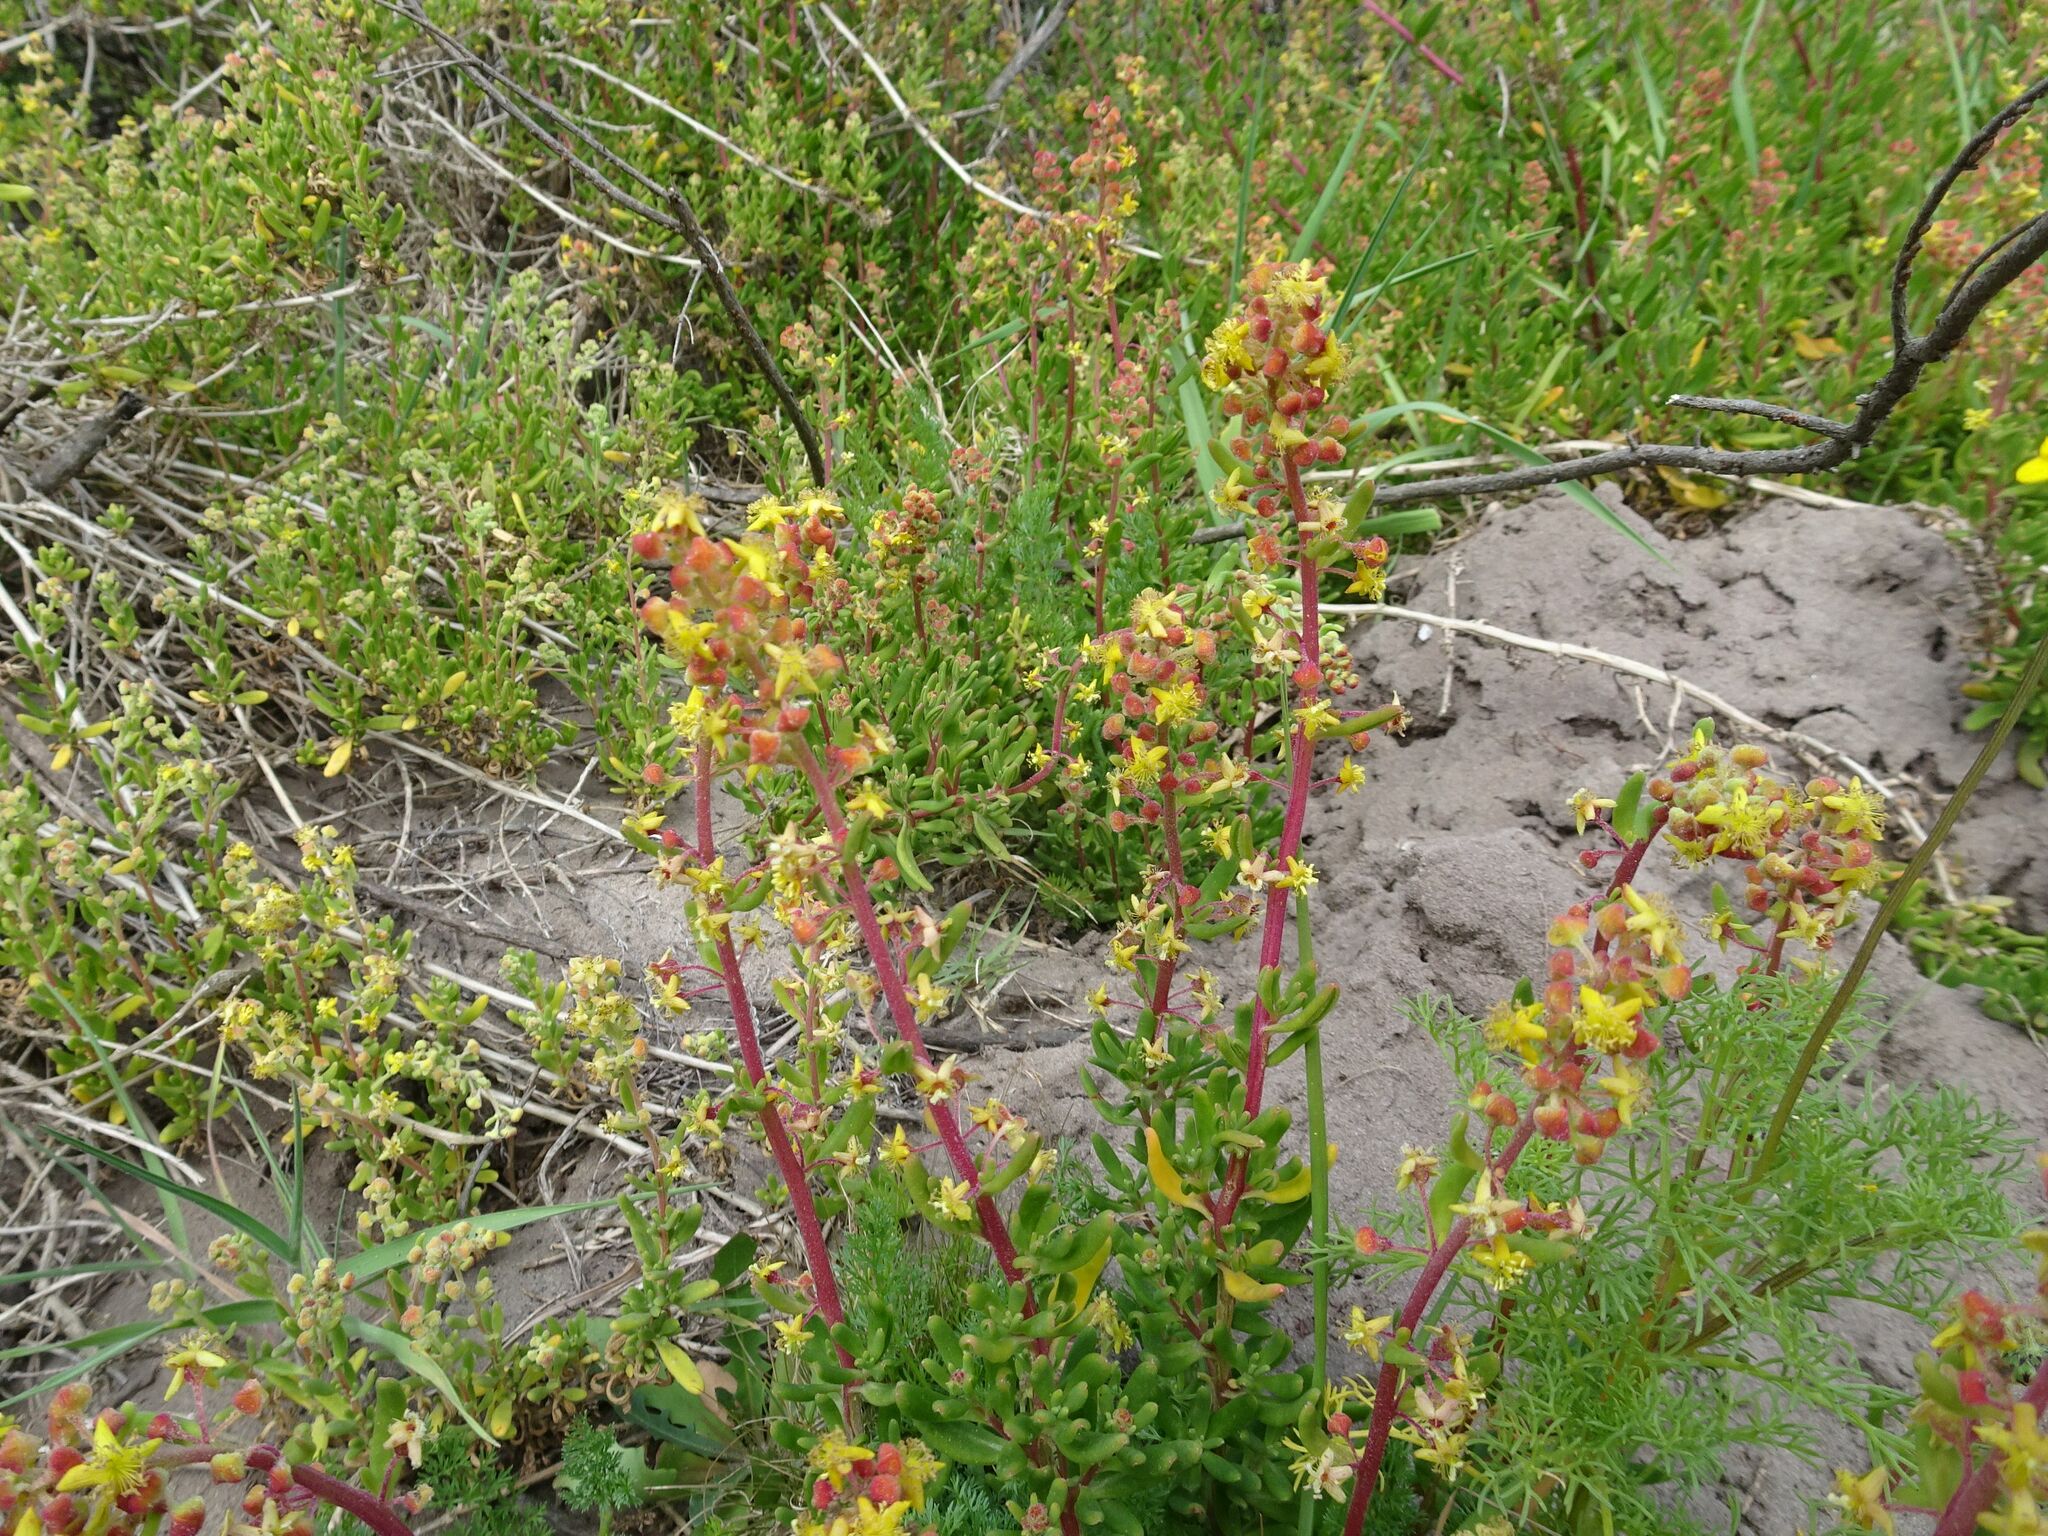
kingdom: Plantae
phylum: Tracheophyta
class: Magnoliopsida
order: Caryophyllales
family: Aizoaceae
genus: Tetragonia
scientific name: Tetragonia fruticosa
